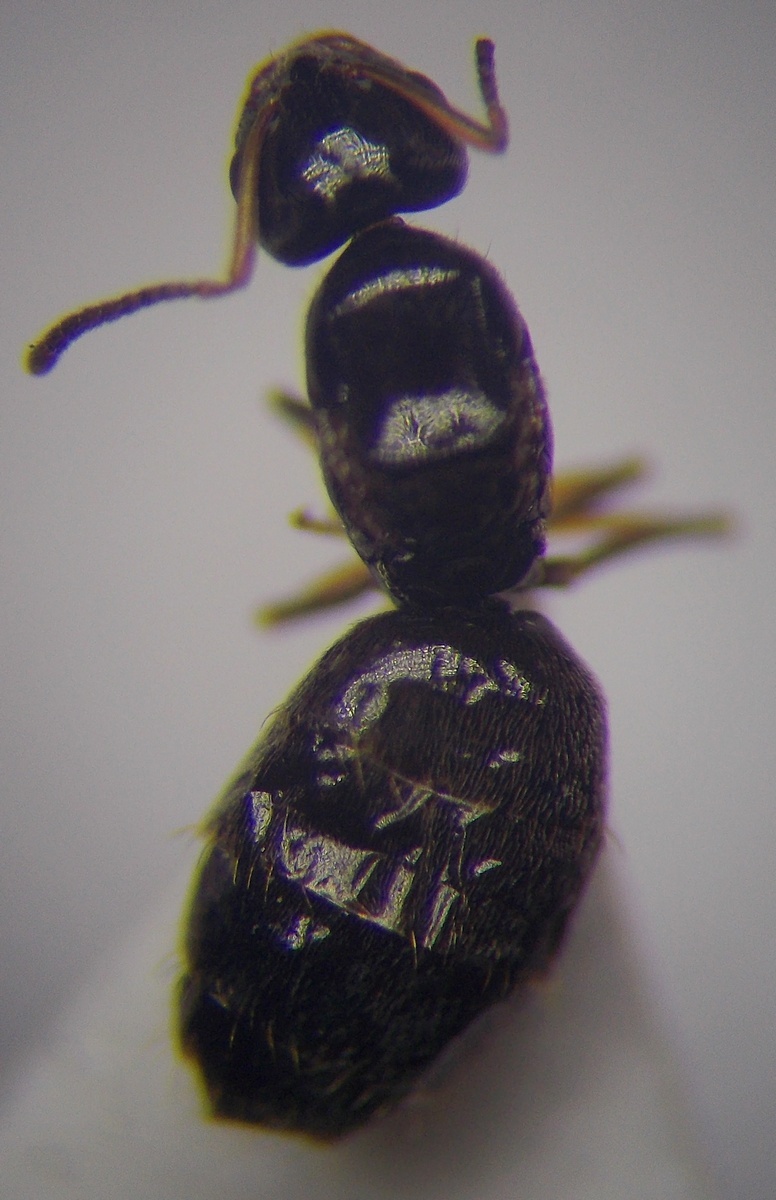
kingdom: Animalia
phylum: Arthropoda
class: Insecta
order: Hymenoptera
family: Formicidae
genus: Plagiolepis
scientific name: Plagiolepis pallescens
